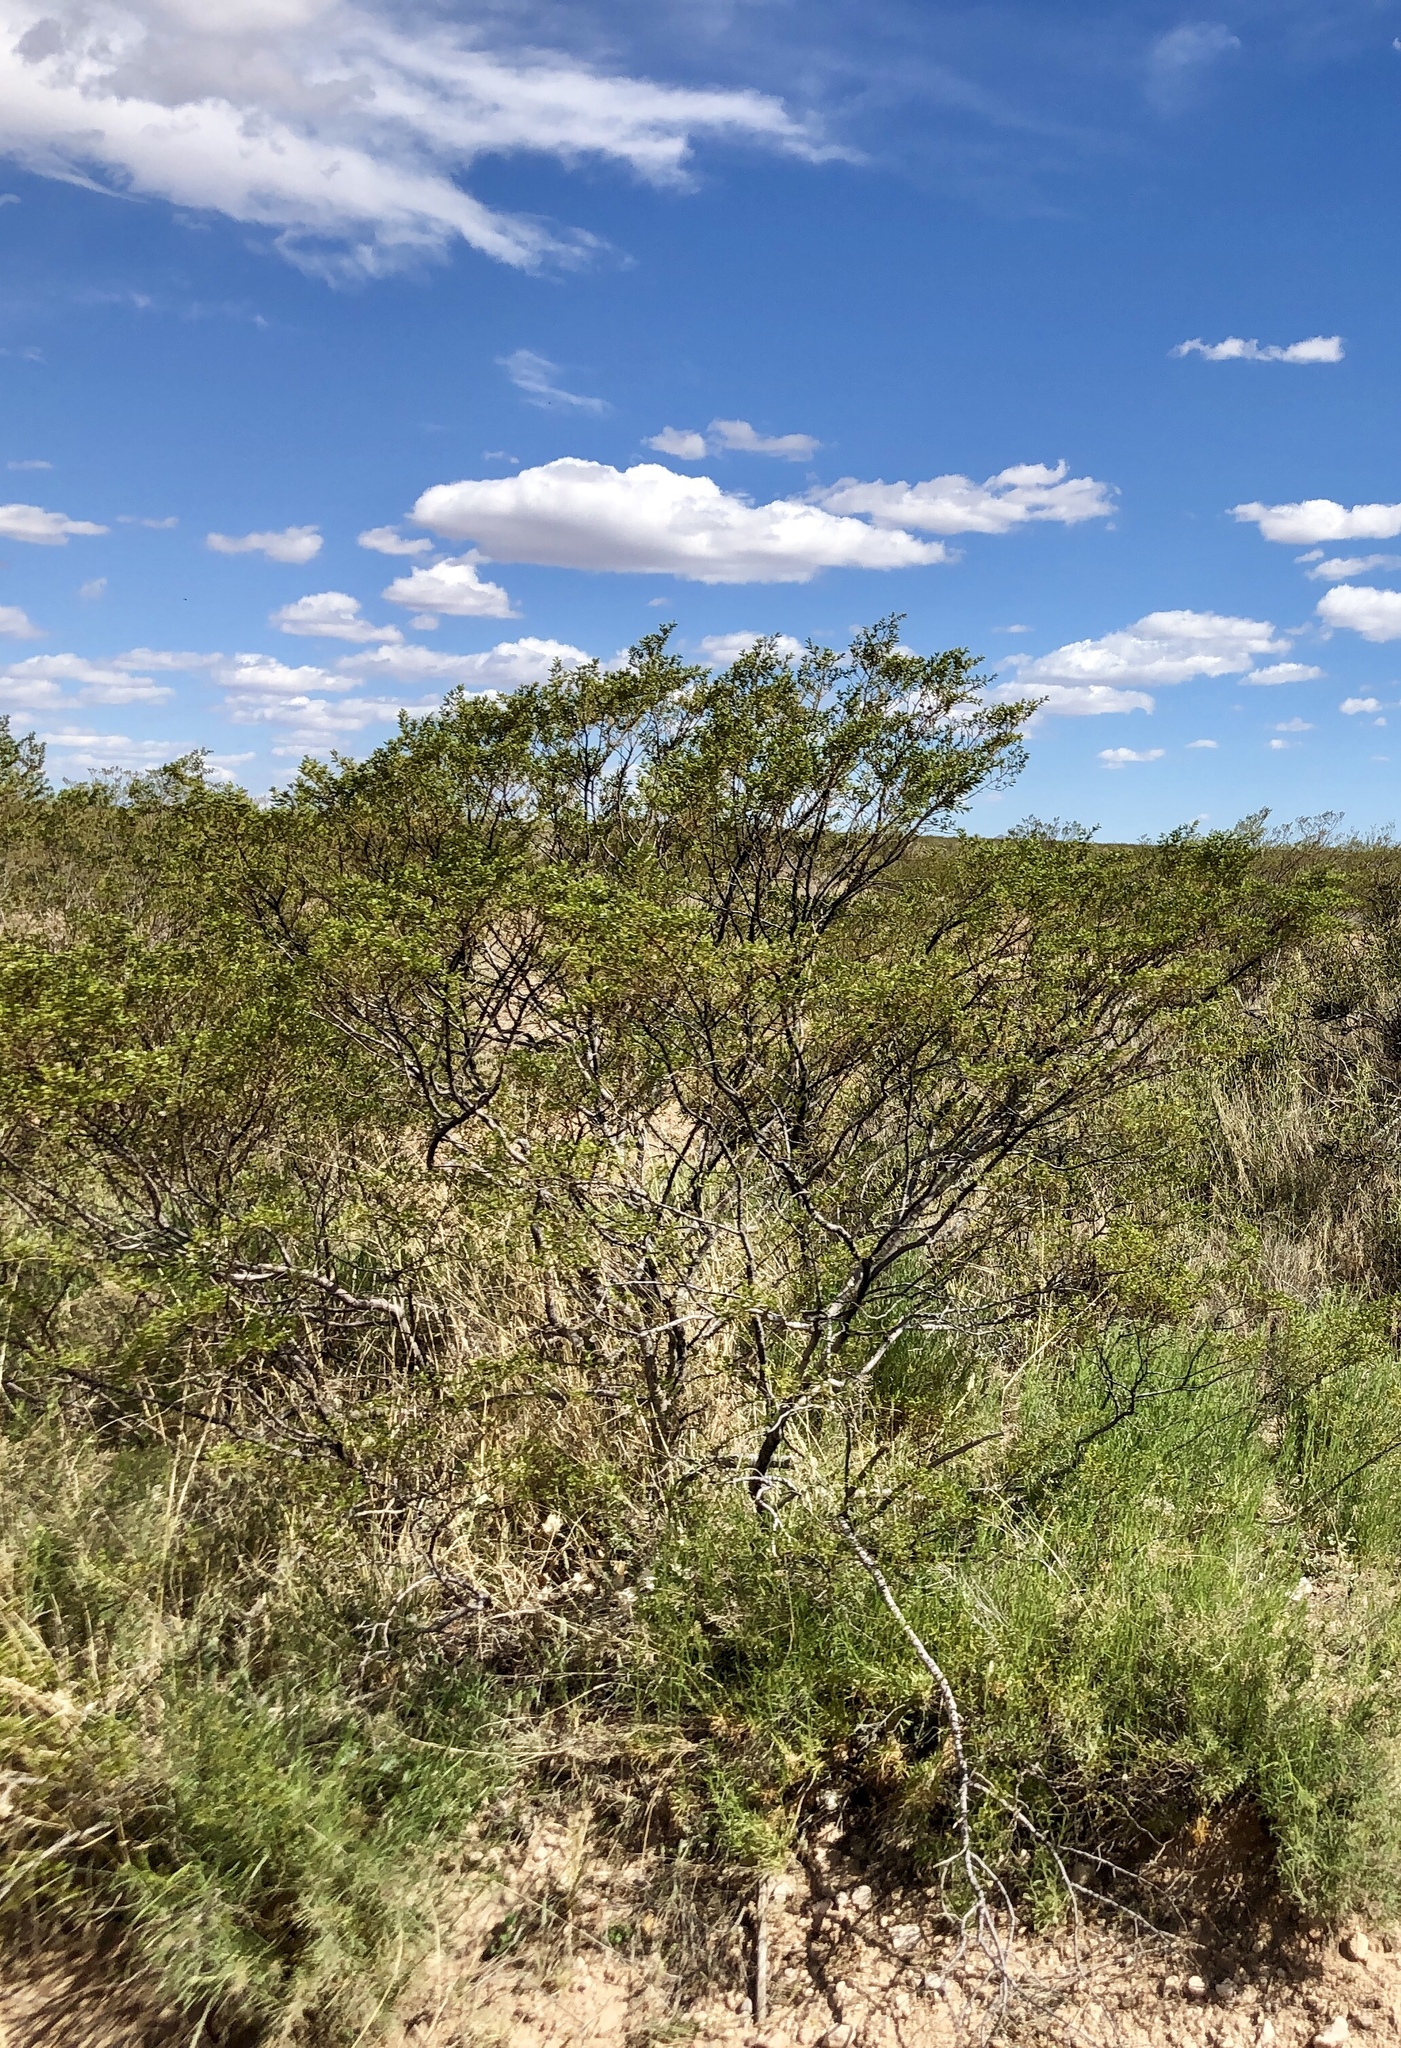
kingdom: Plantae
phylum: Tracheophyta
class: Magnoliopsida
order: Zygophyllales
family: Zygophyllaceae
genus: Larrea
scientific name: Larrea tridentata
